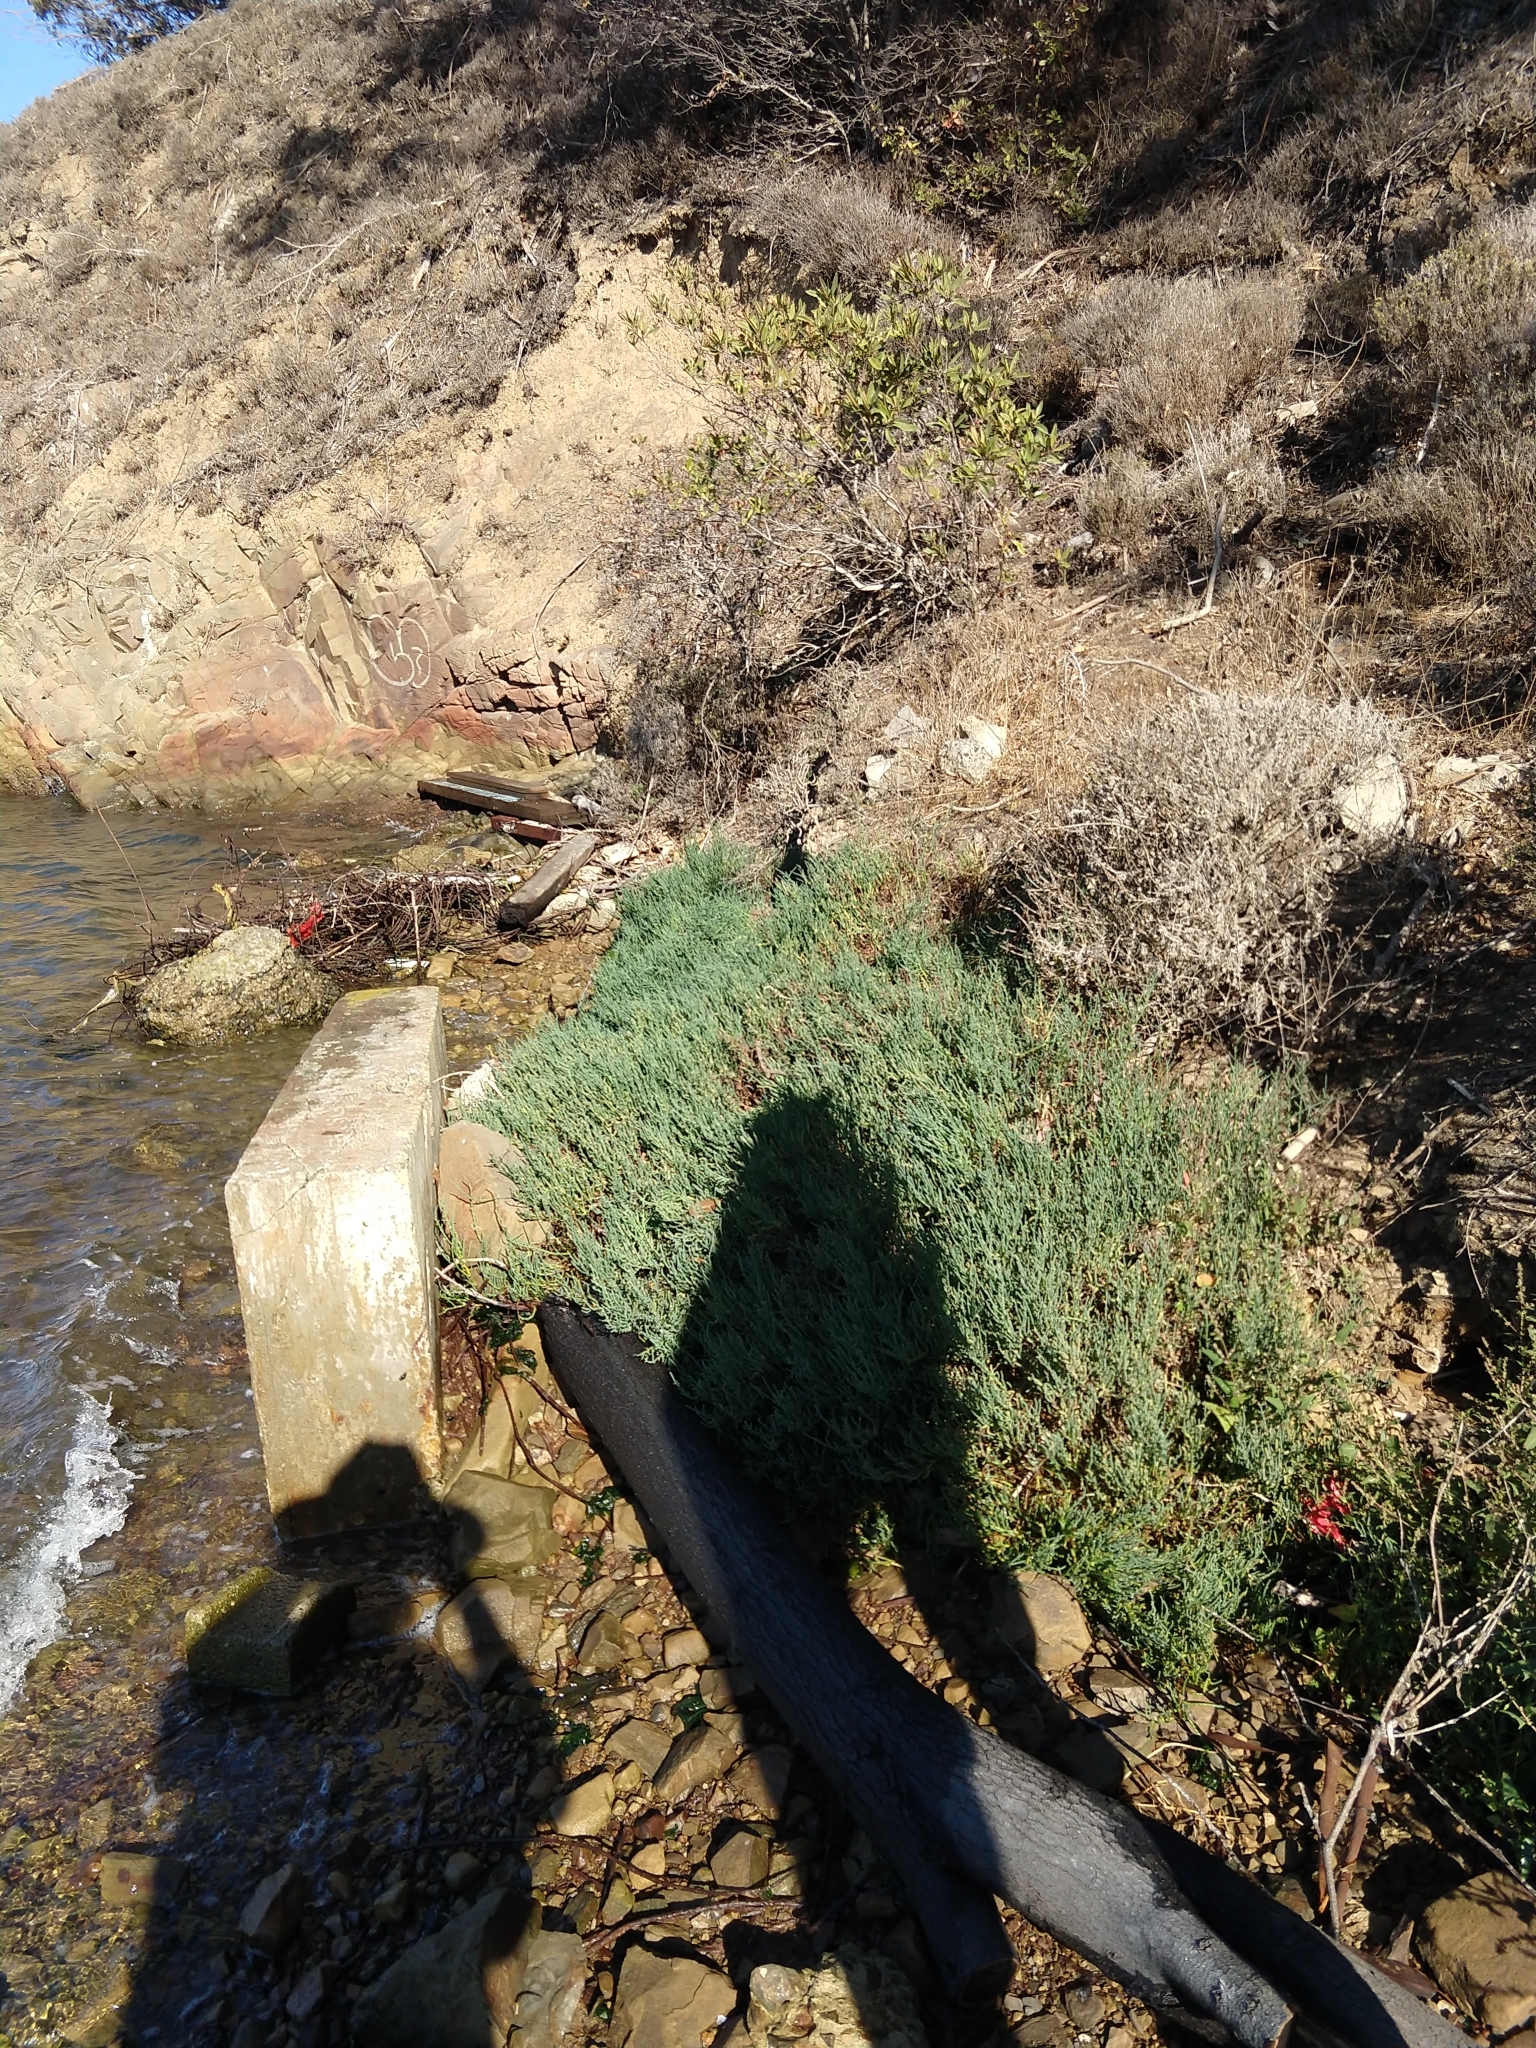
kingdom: Plantae
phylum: Tracheophyta
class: Magnoliopsida
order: Caryophyllales
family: Amaranthaceae
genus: Salicornia
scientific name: Salicornia pacifica
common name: Pacific glasswort
